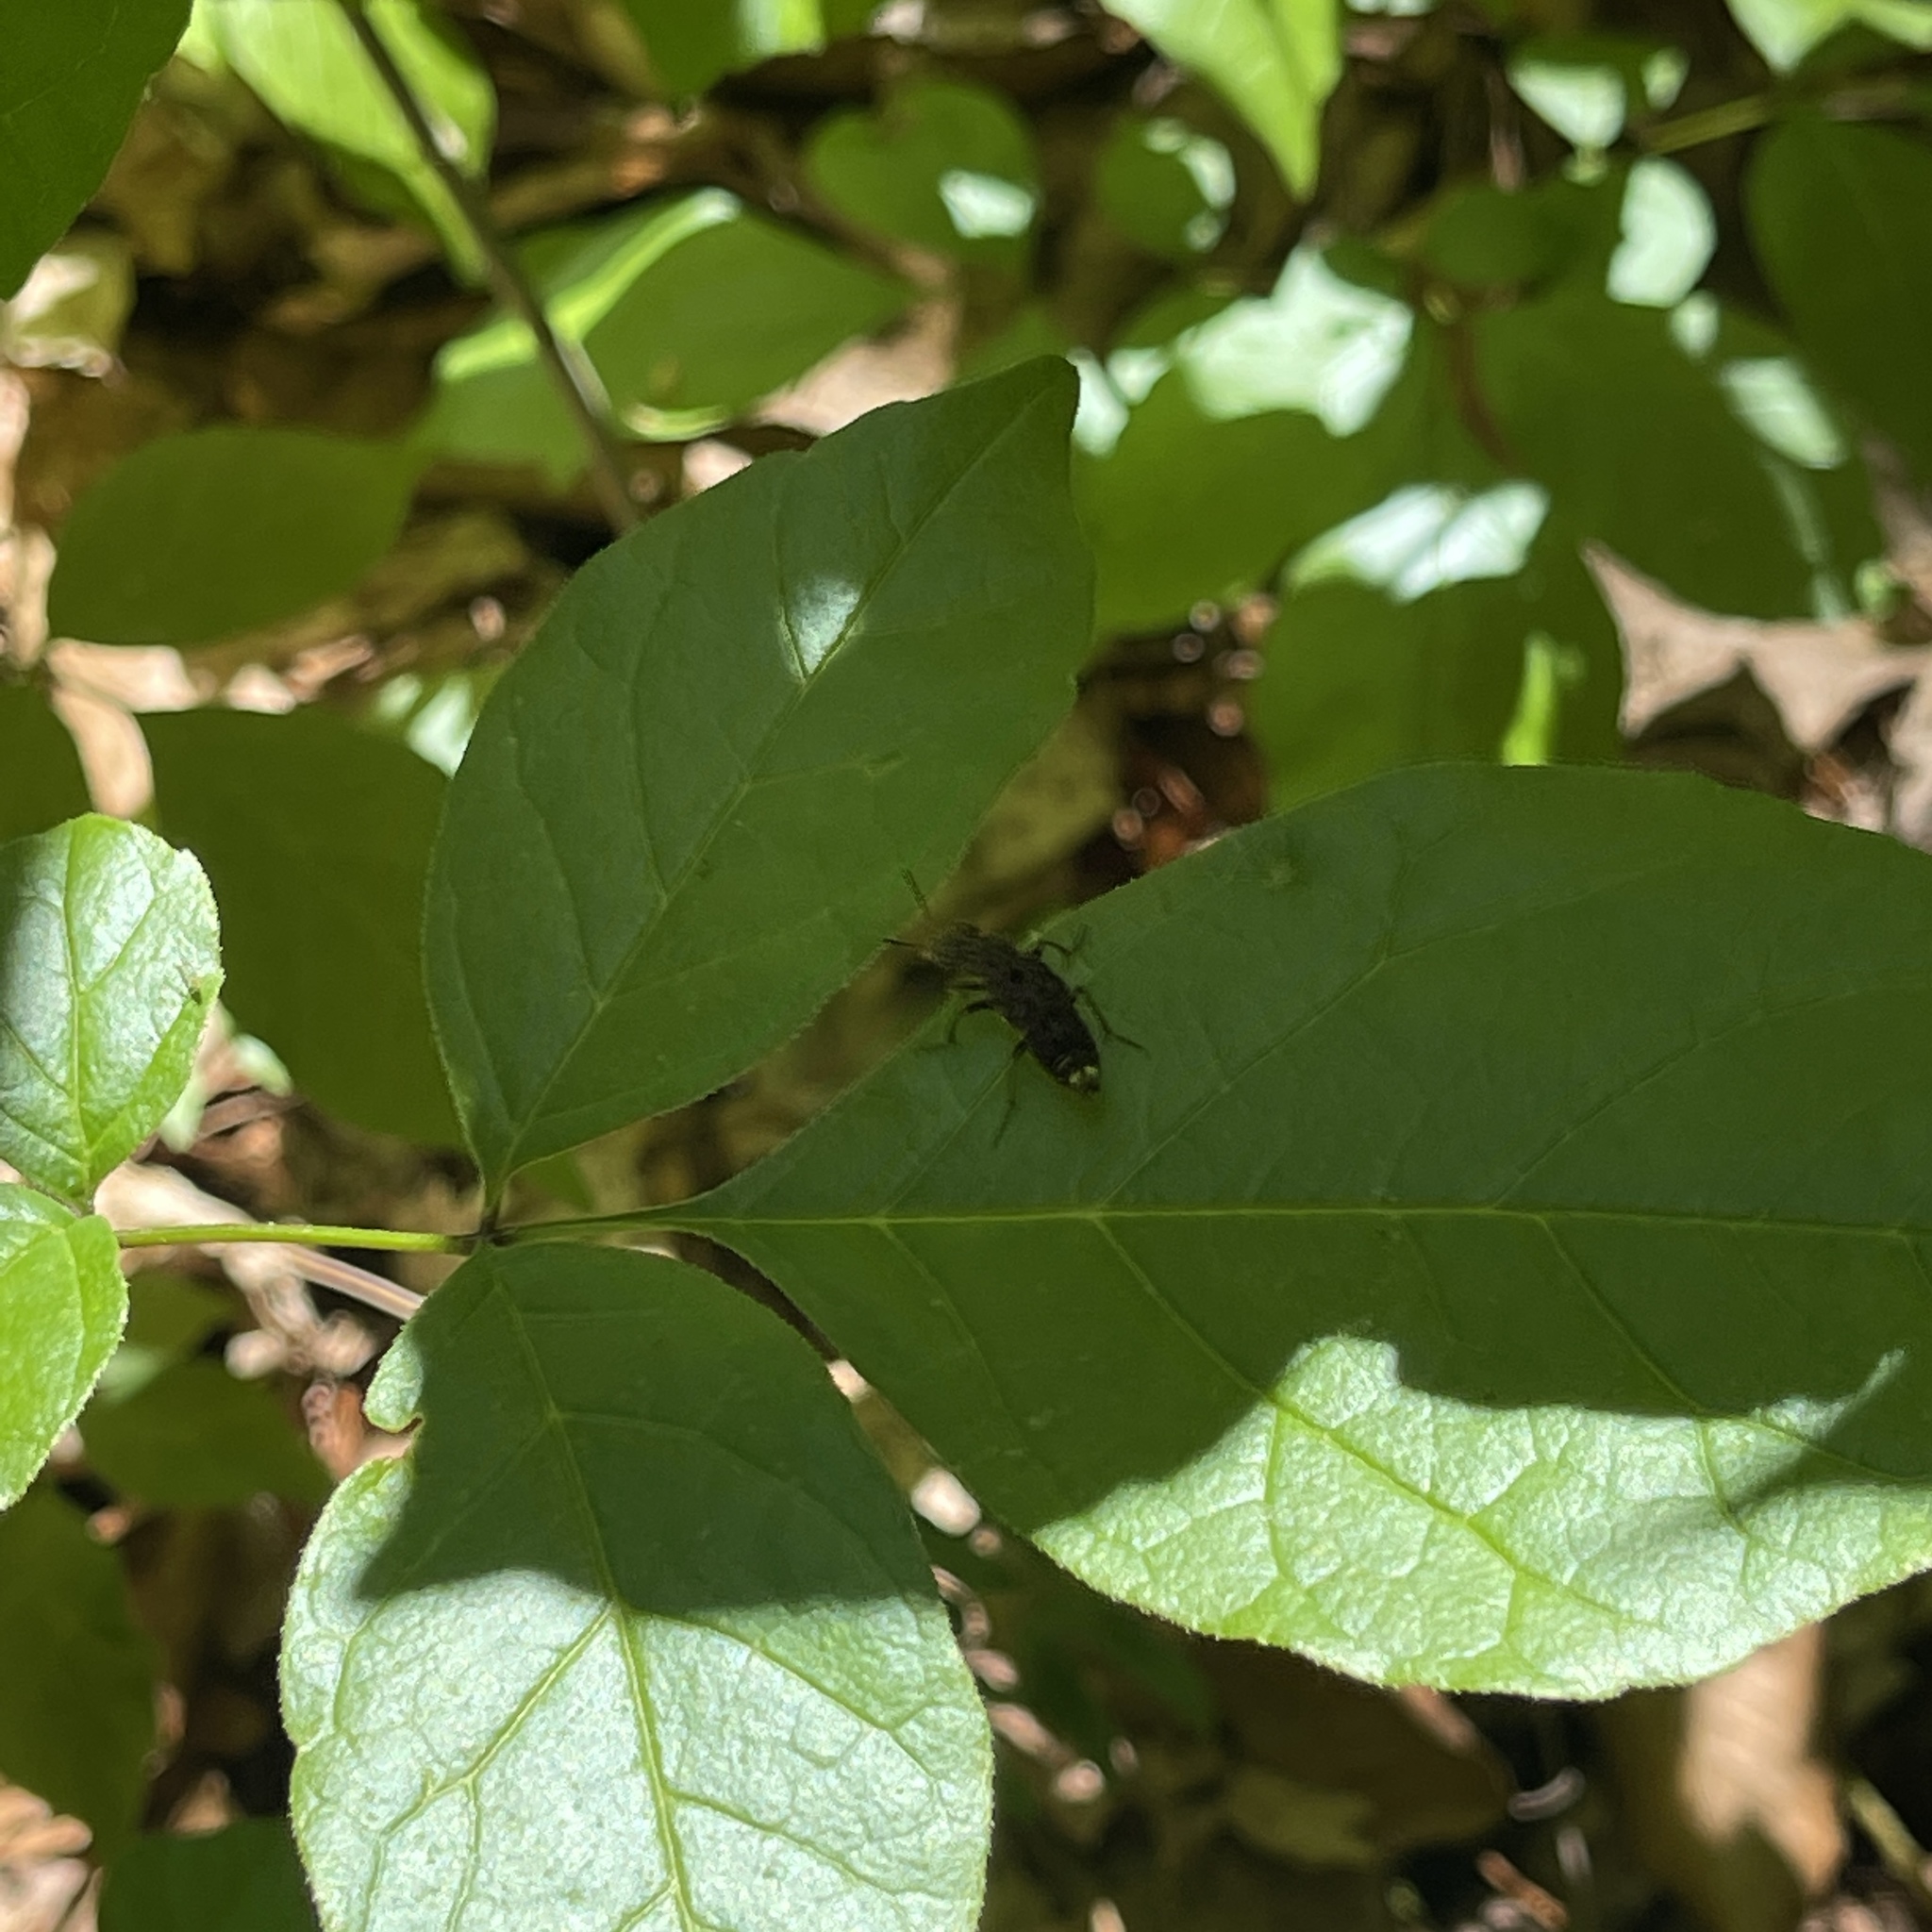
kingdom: Animalia
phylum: Arthropoda
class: Insecta
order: Coleoptera
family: Staphylinidae
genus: Ontholestes
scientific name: Ontholestes cingulatus
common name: Gold-and-brown rove beetle
